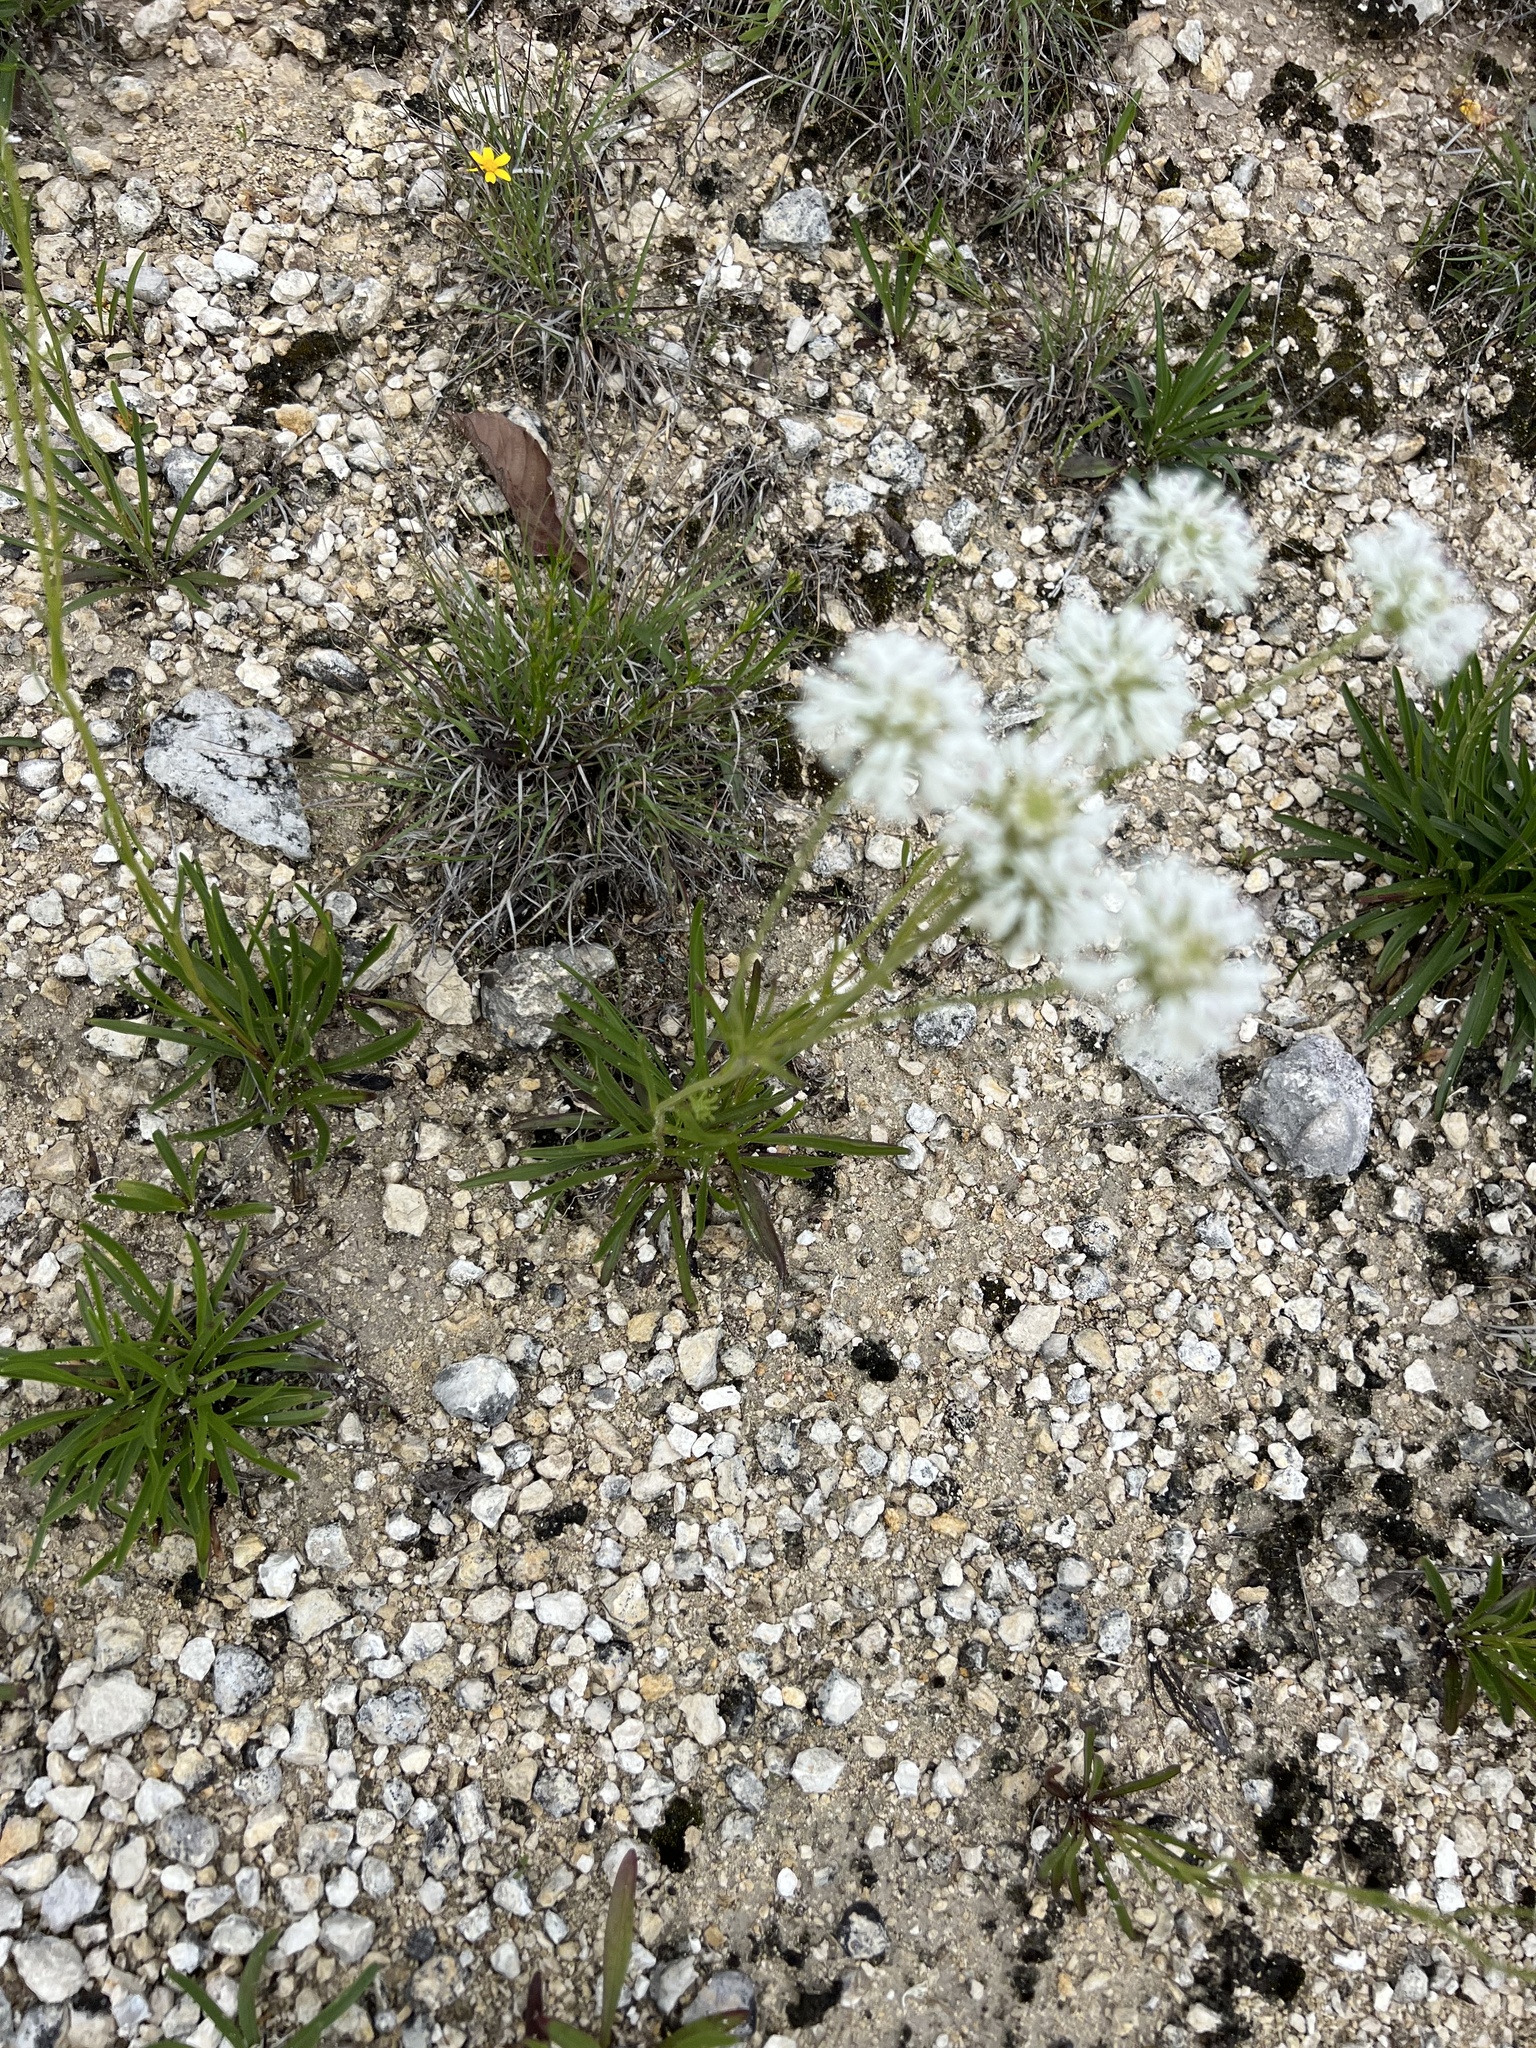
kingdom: Plantae
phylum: Tracheophyta
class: Magnoliopsida
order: Asterales
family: Asteraceae
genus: Marshallia
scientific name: Marshallia caespitosa
